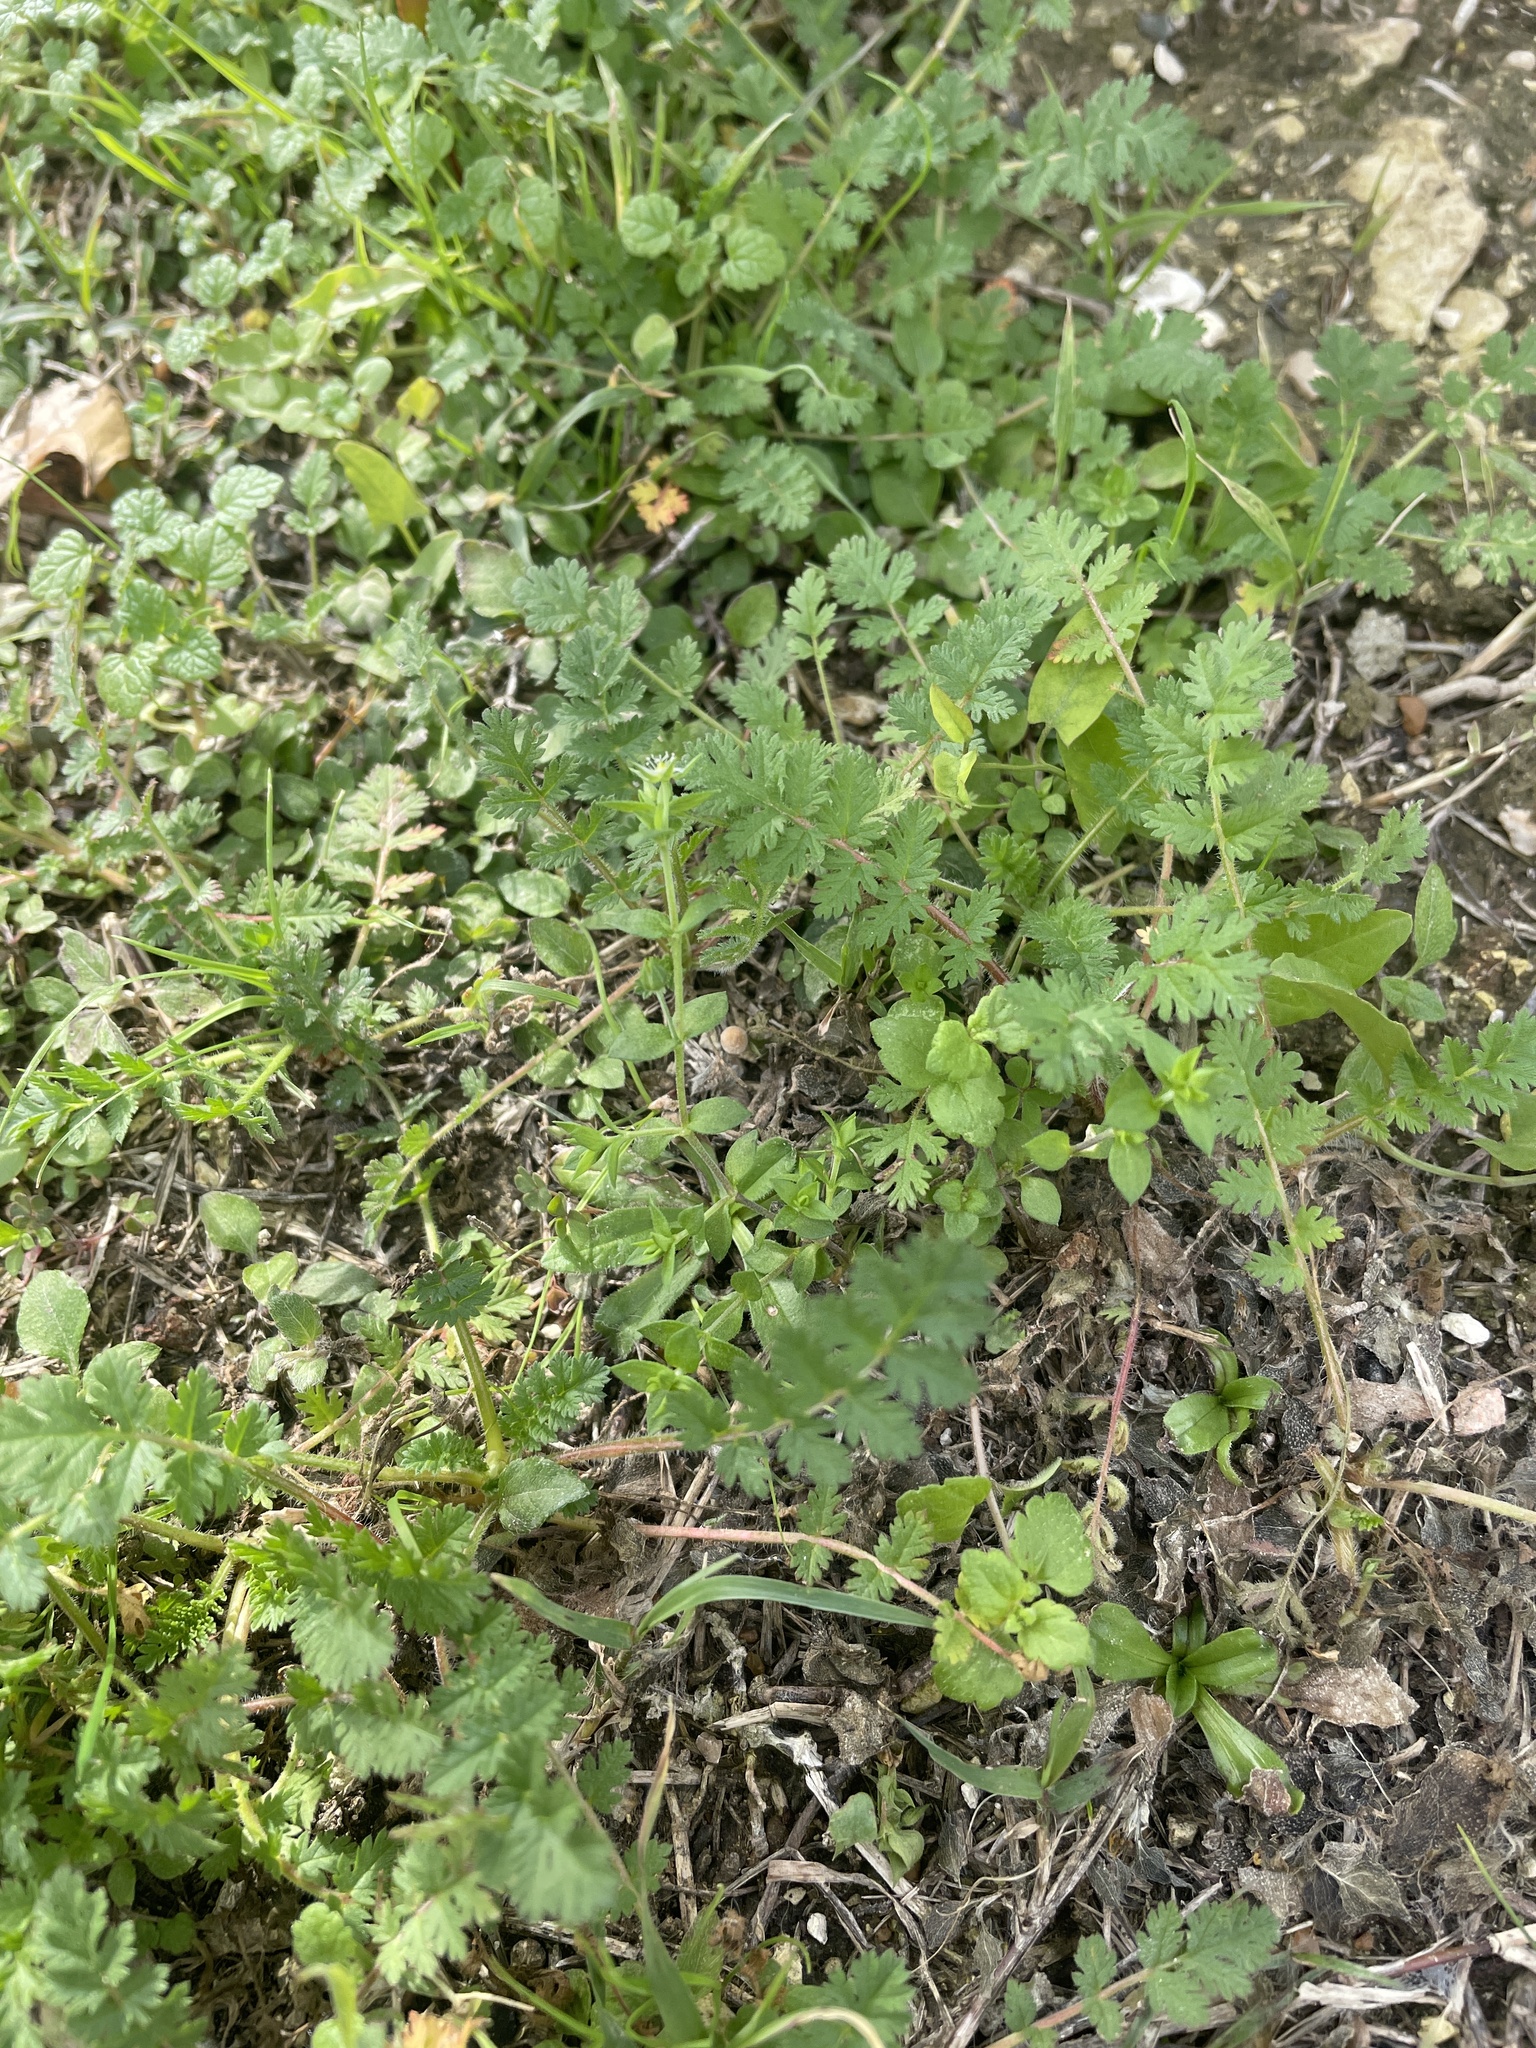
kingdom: Plantae
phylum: Tracheophyta
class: Magnoliopsida
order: Caryophyllales
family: Caryophyllaceae
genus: Arenaria
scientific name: Arenaria serpyllifolia
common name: Thyme-leaved sandwort
